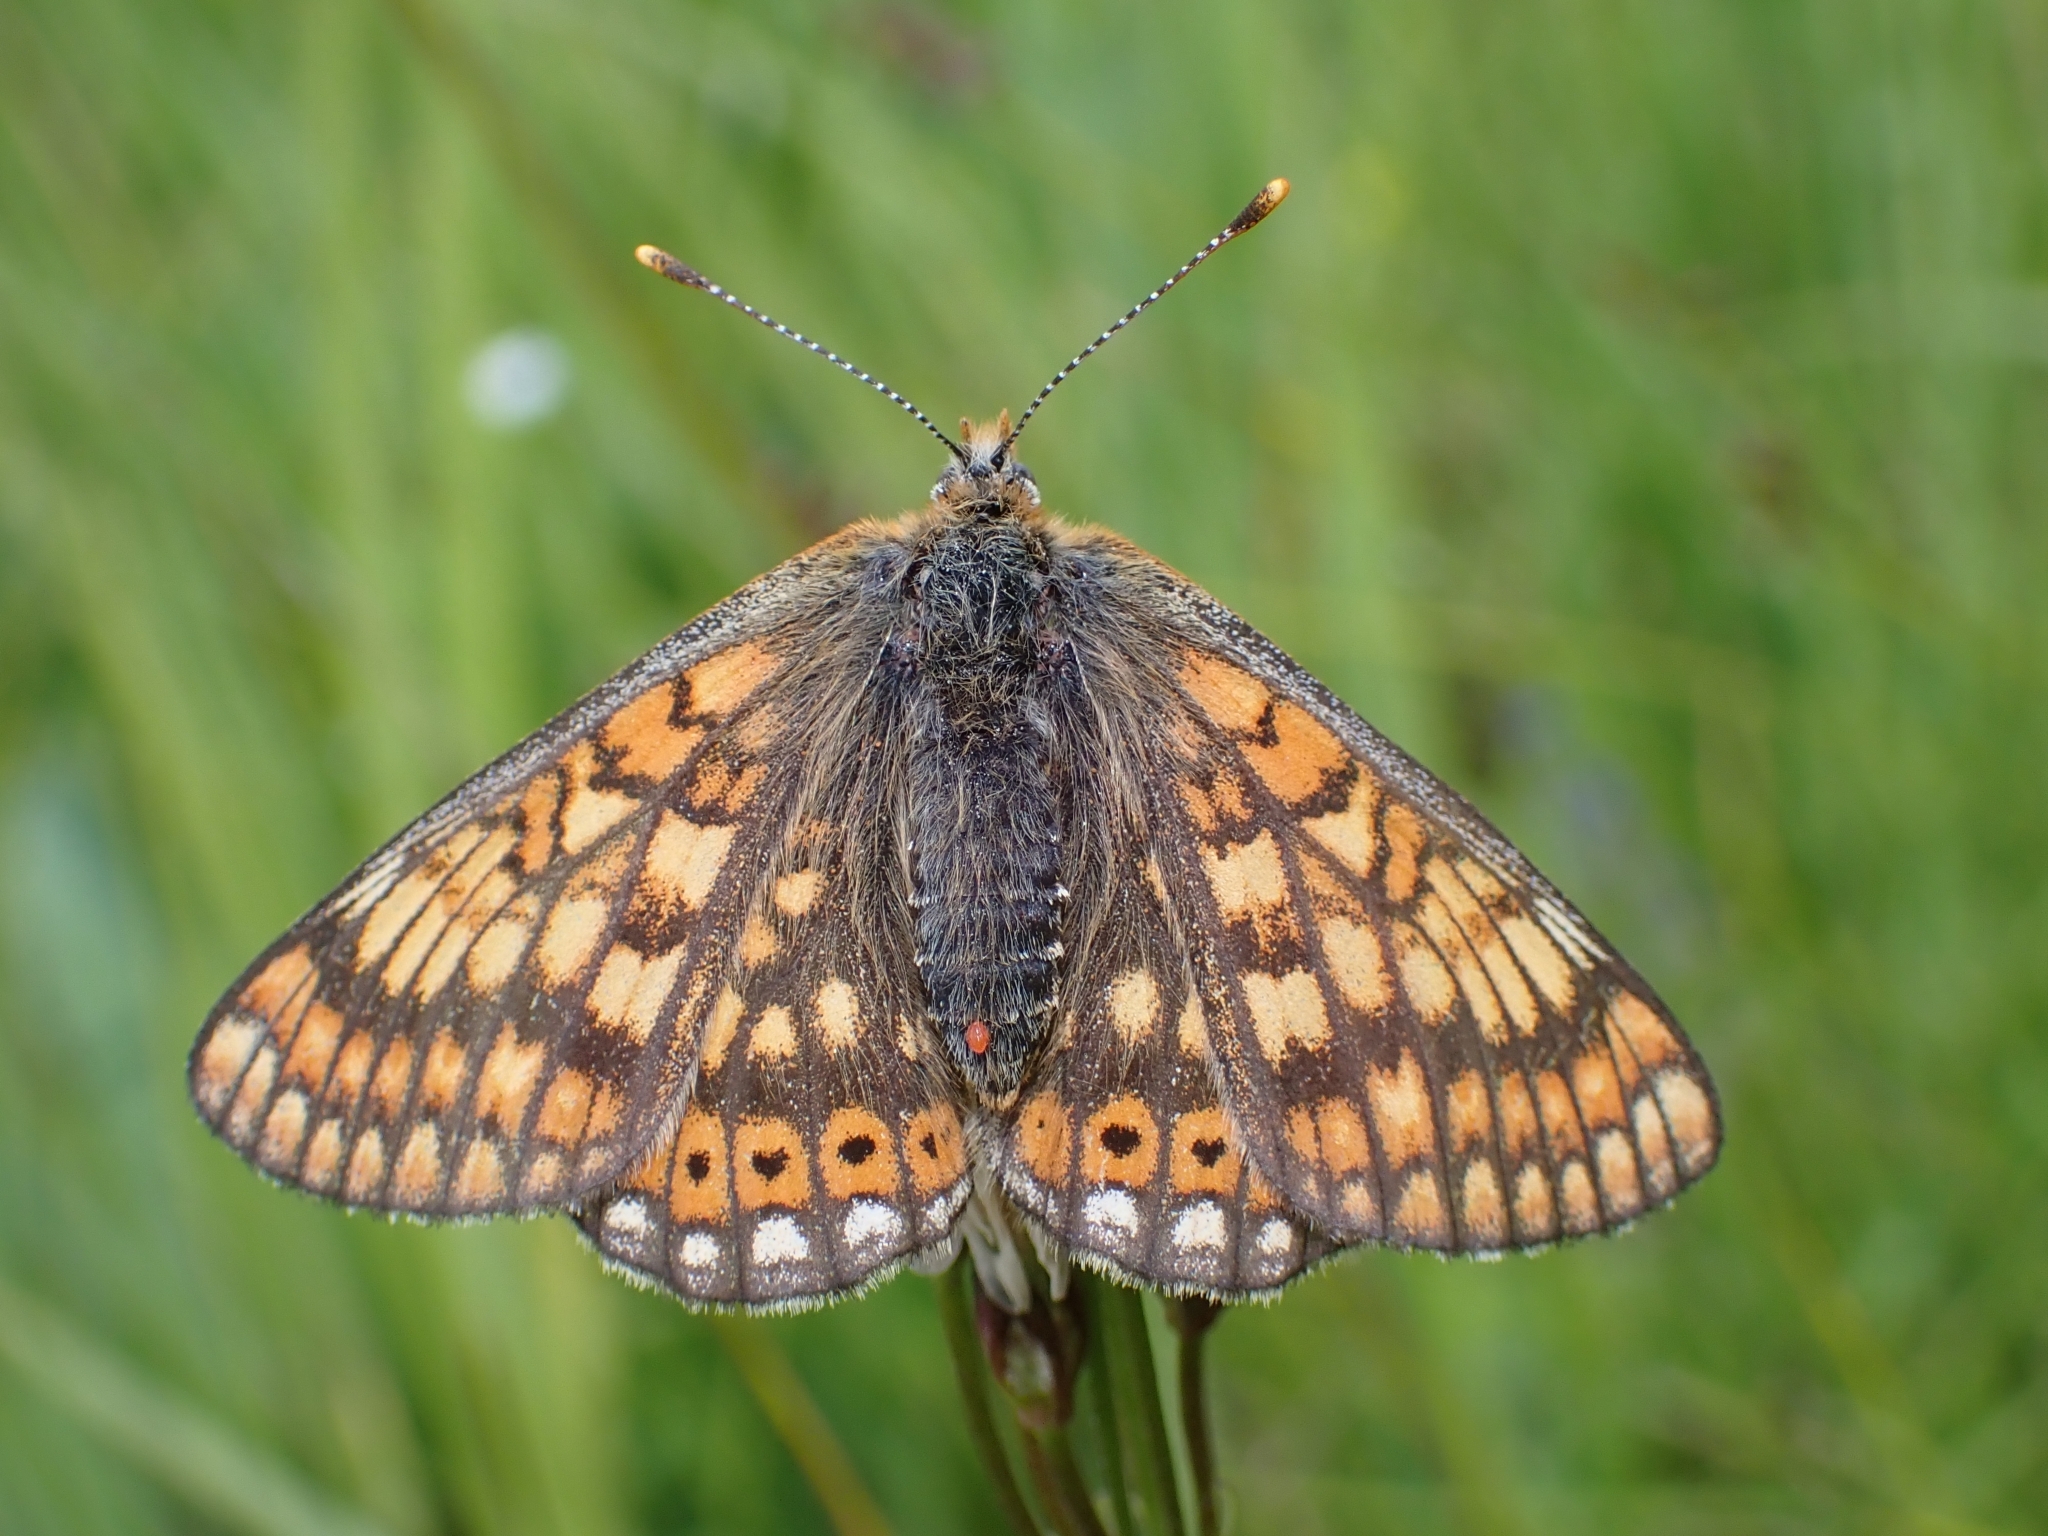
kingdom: Animalia
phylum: Arthropoda
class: Insecta
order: Lepidoptera
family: Nymphalidae
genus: Euphydryas
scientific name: Euphydryas aurinia
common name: Marsh fritillary
